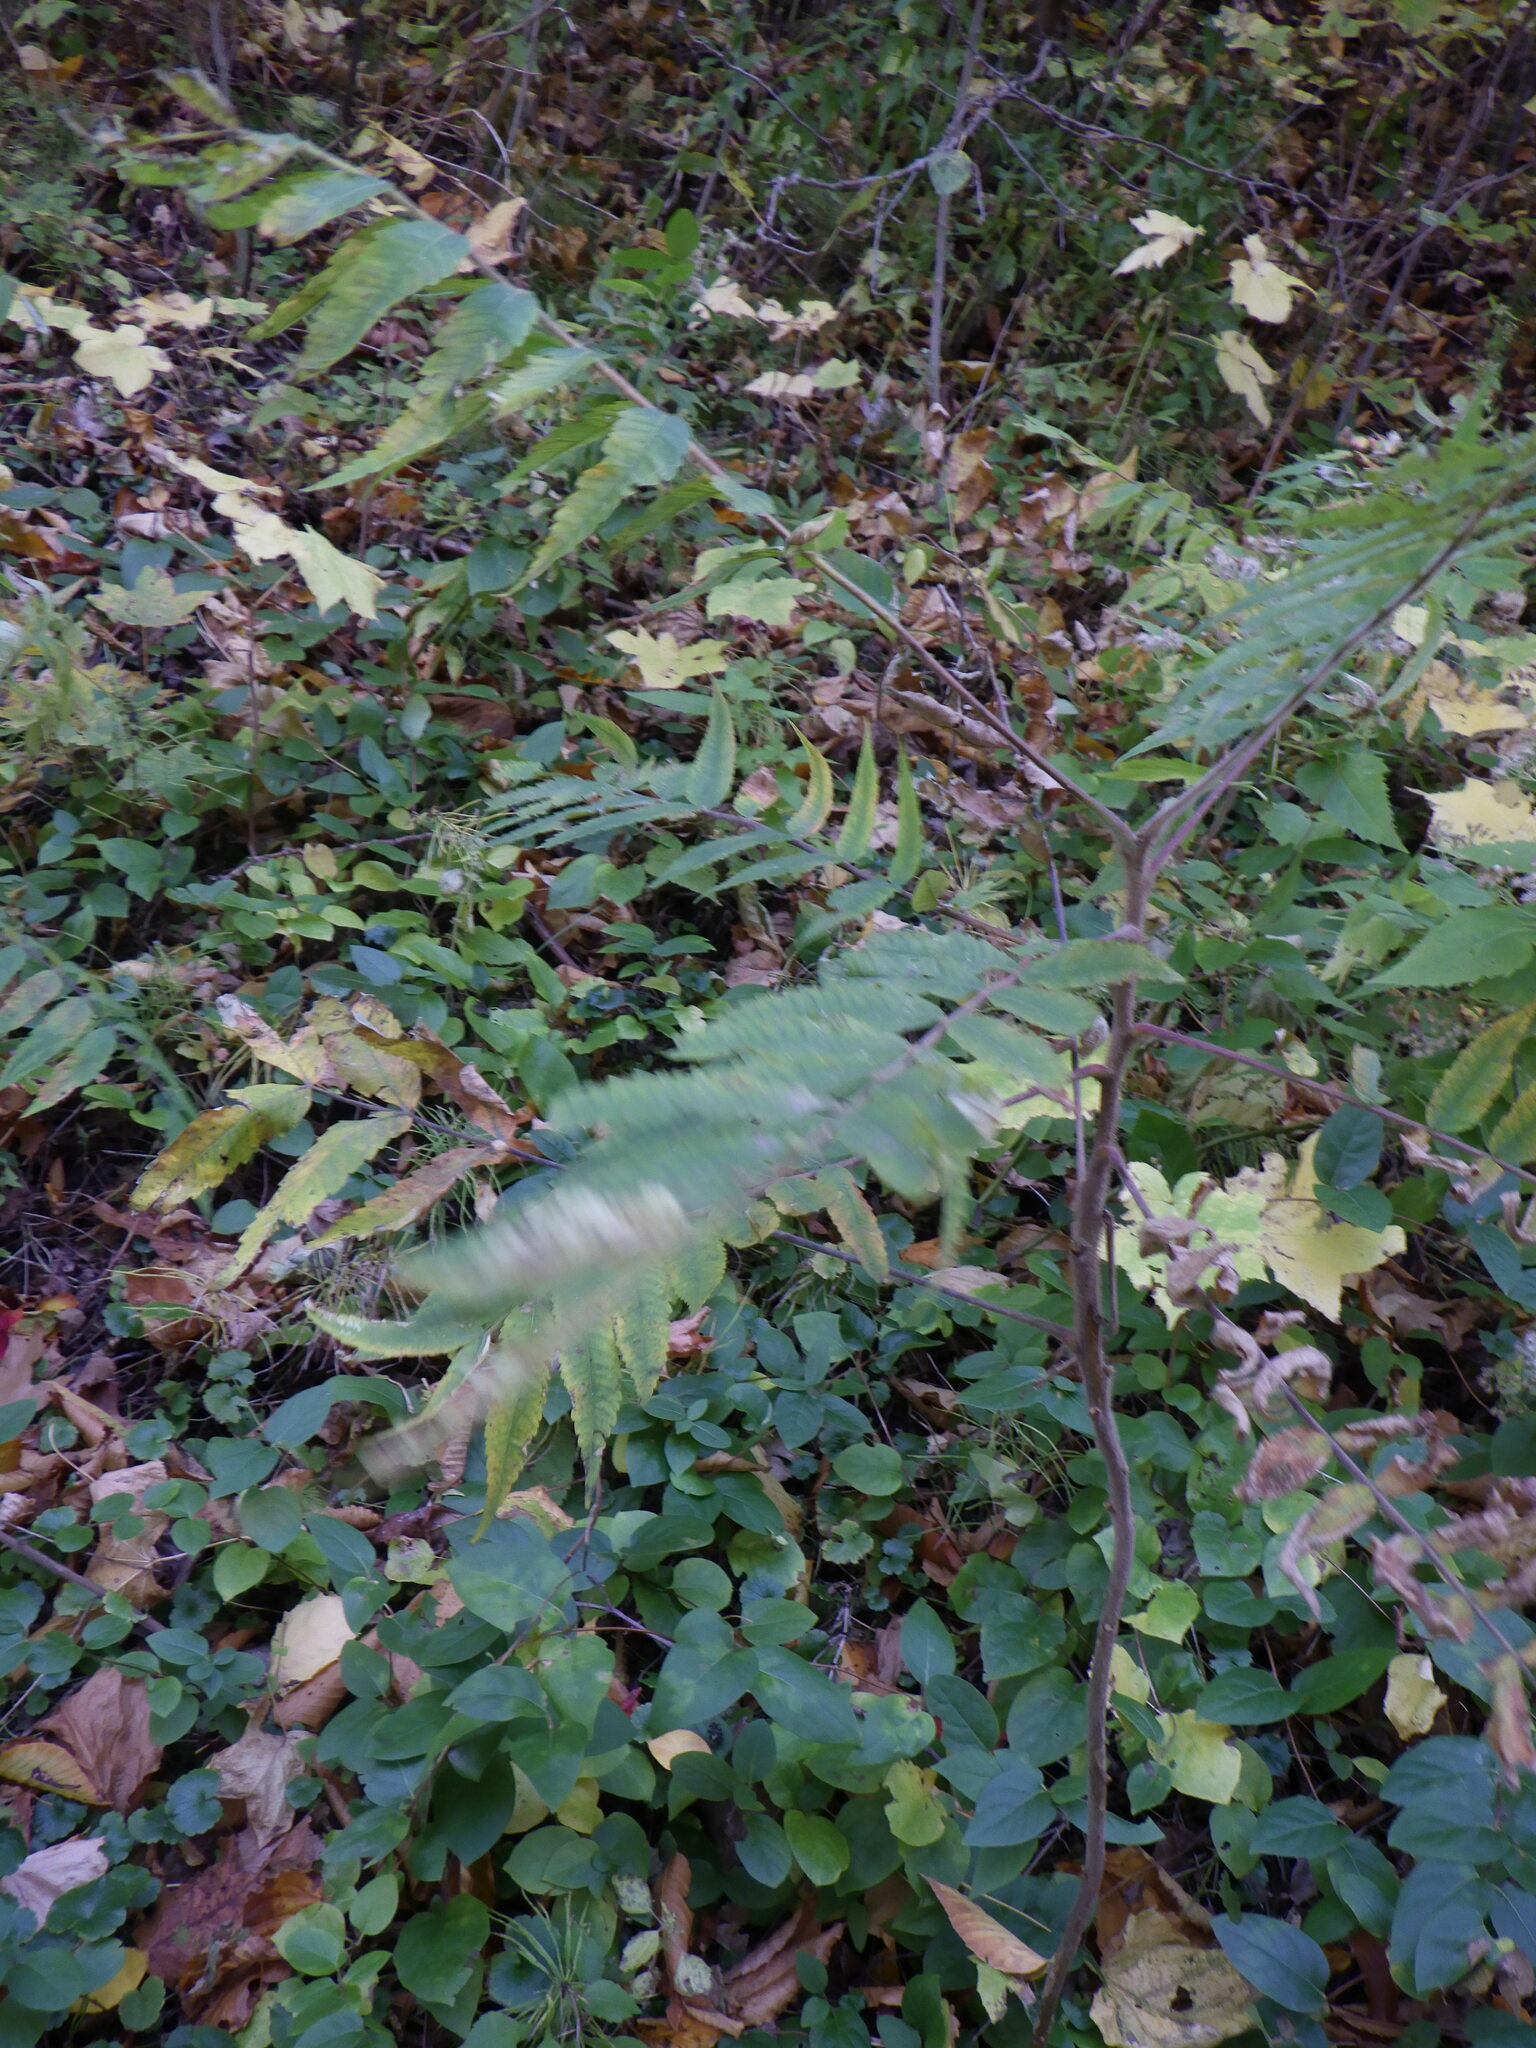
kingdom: Plantae
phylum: Tracheophyta
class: Magnoliopsida
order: Sapindales
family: Anacardiaceae
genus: Rhus
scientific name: Rhus typhina
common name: Staghorn sumac
